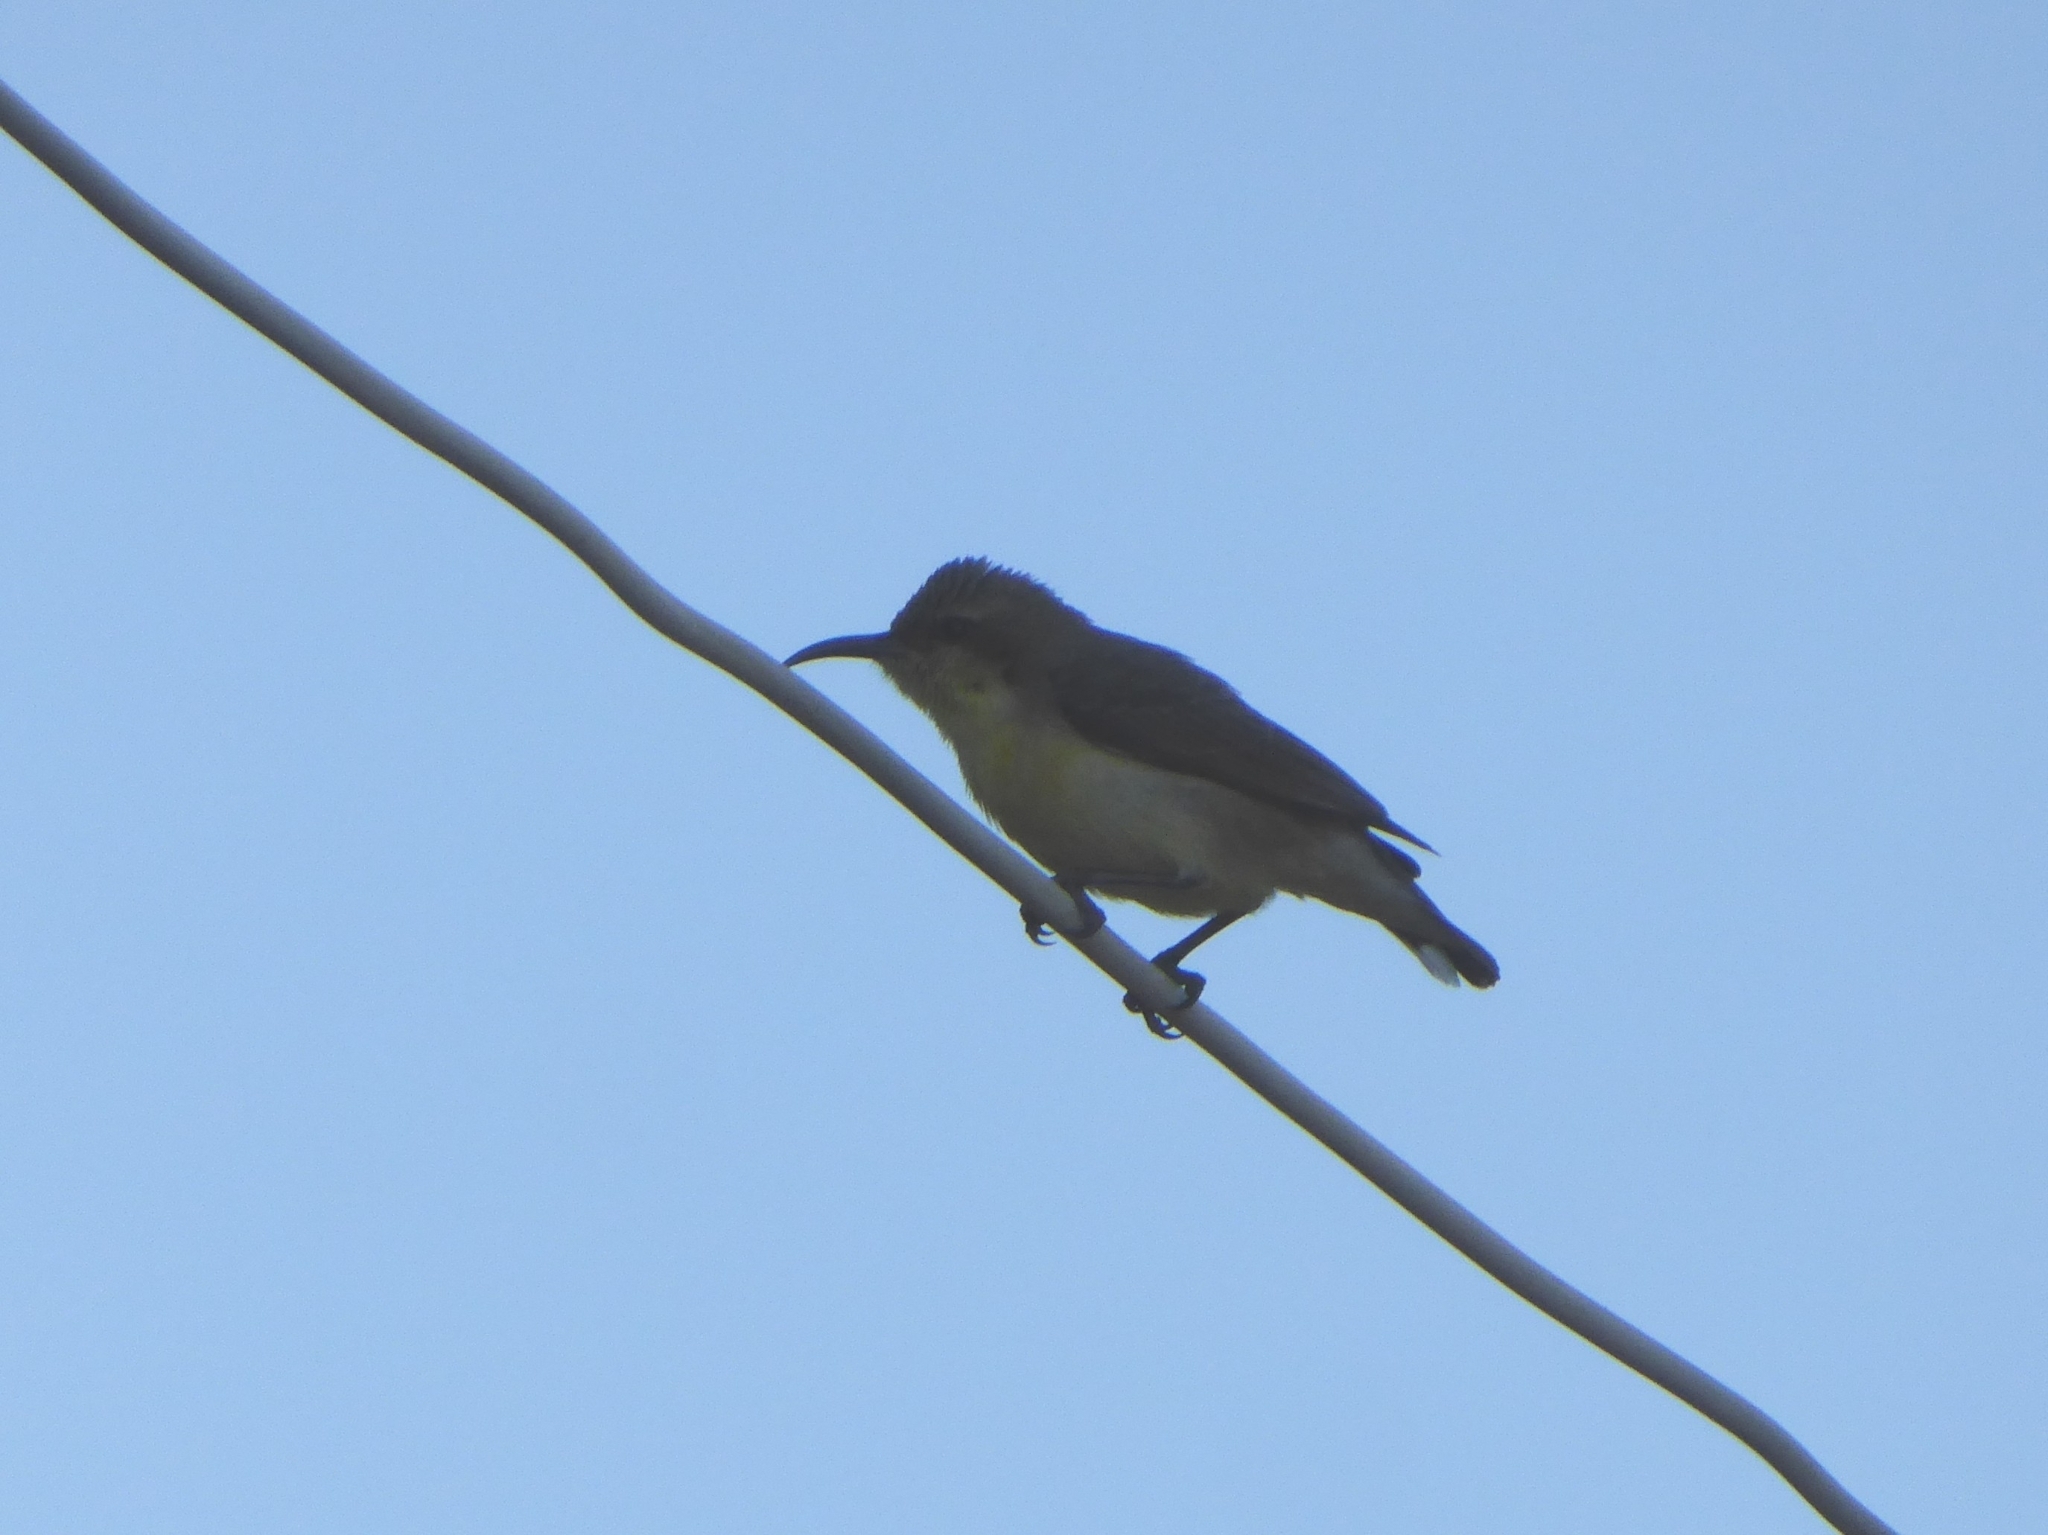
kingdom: Animalia
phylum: Chordata
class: Aves
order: Passeriformes
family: Nectariniidae
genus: Cinnyris
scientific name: Cinnyris asiaticus
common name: Purple sunbird
